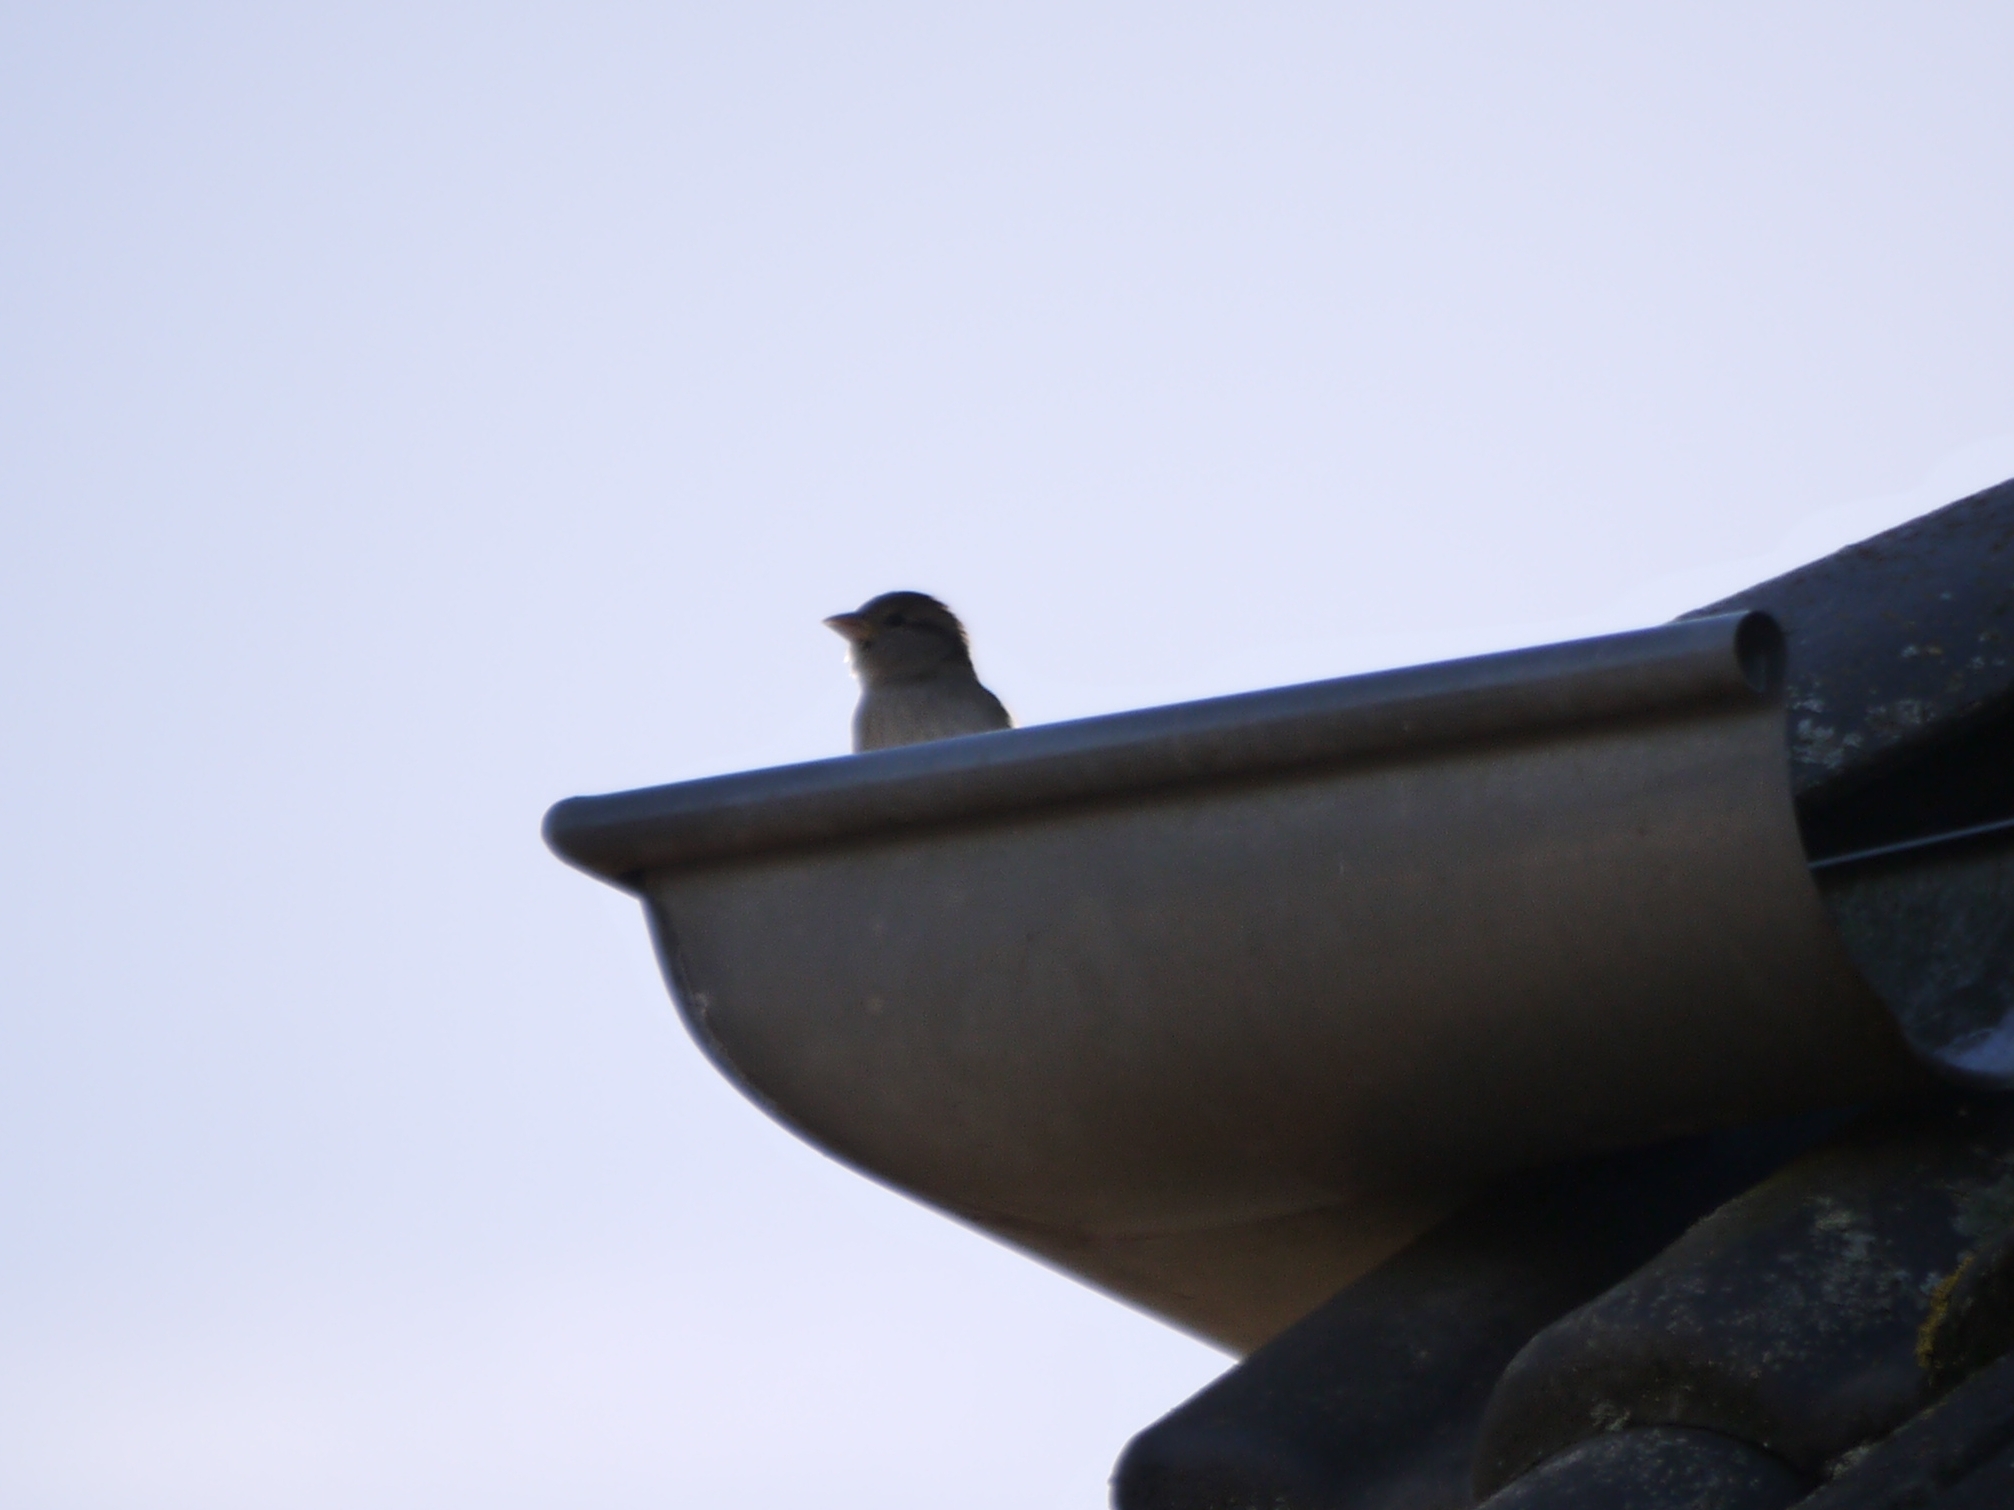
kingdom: Animalia
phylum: Chordata
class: Aves
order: Passeriformes
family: Passeridae
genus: Passer
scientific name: Passer domesticus
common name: House sparrow
